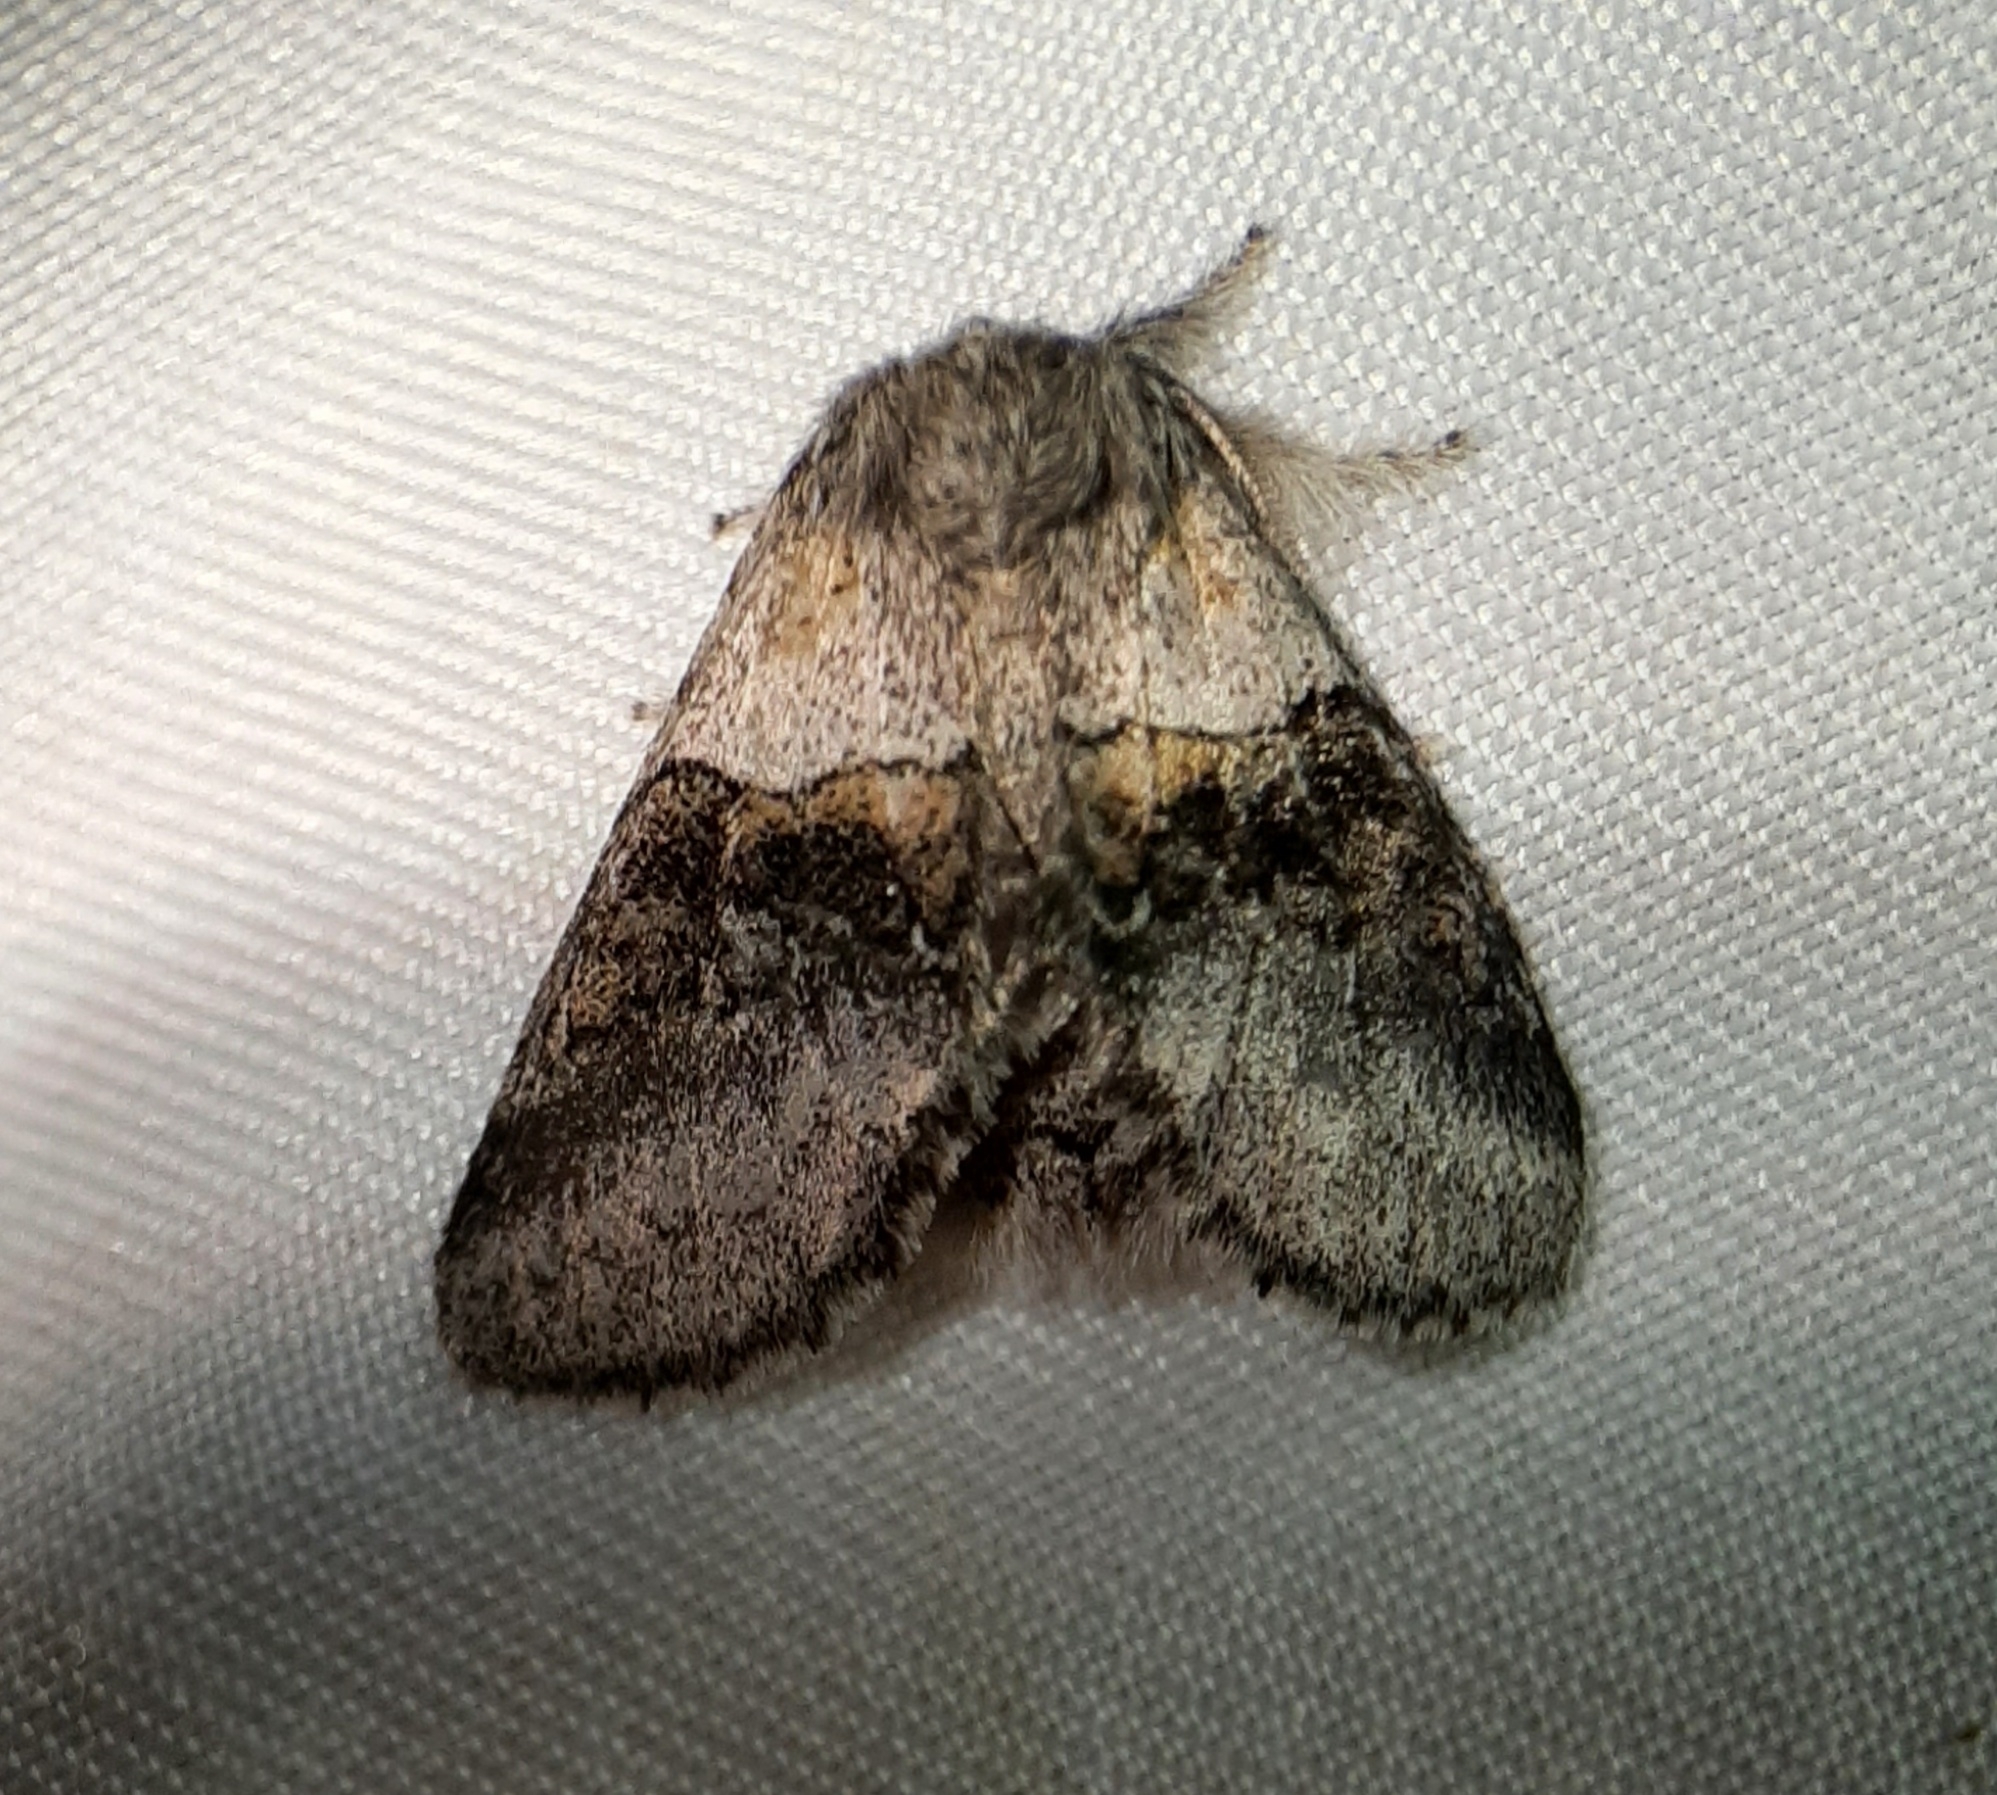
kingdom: Animalia
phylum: Arthropoda
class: Insecta
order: Lepidoptera
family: Notodontidae
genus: Gluphisia
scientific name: Gluphisia septentrionis
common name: Common gluphisia
